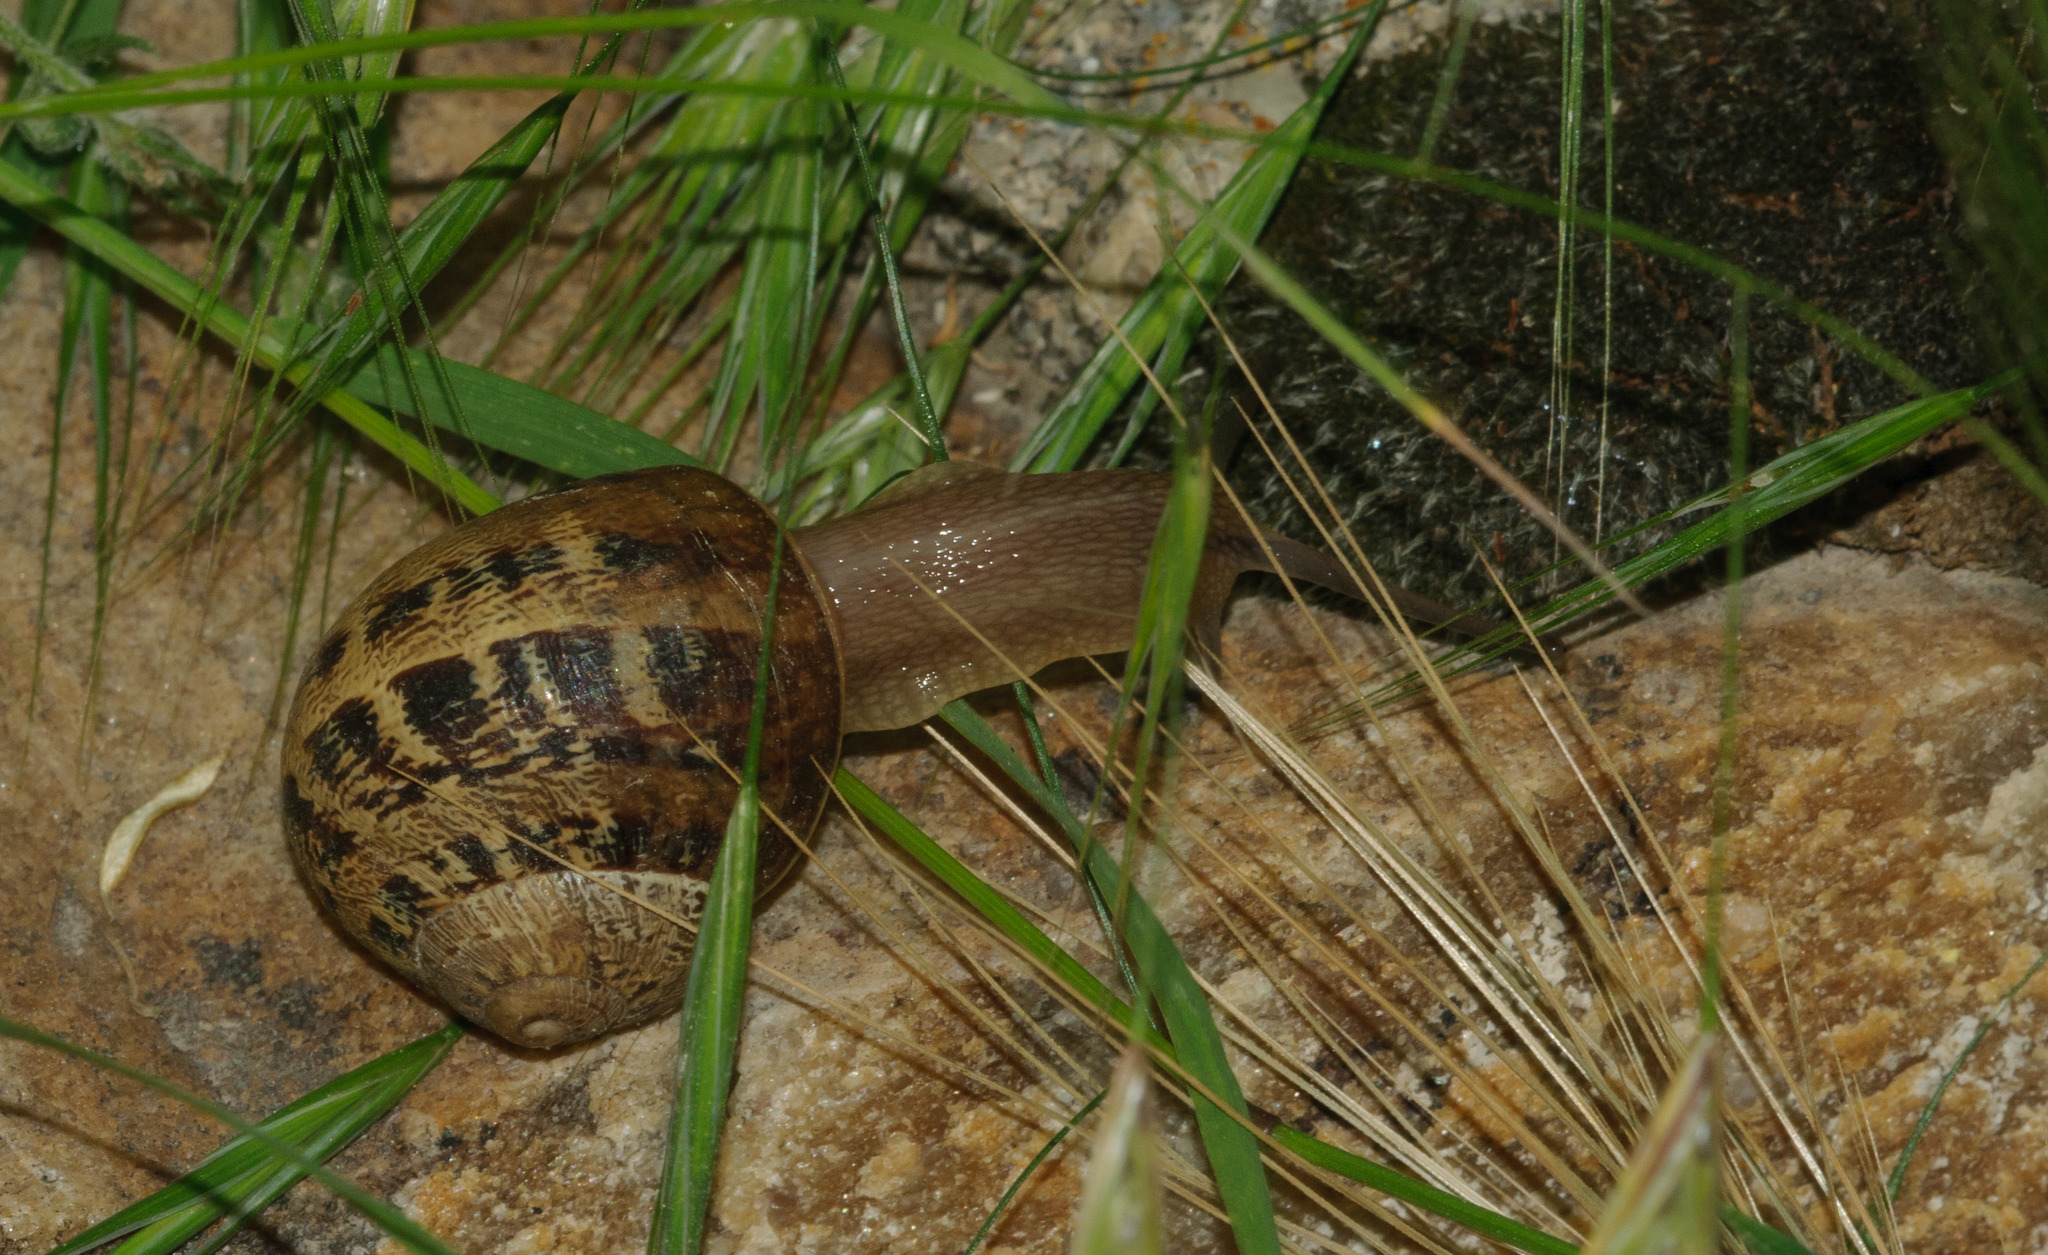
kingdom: Animalia
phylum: Mollusca
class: Gastropoda
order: Stylommatophora
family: Helicidae
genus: Cornu
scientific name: Cornu aspersum
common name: Brown garden snail
